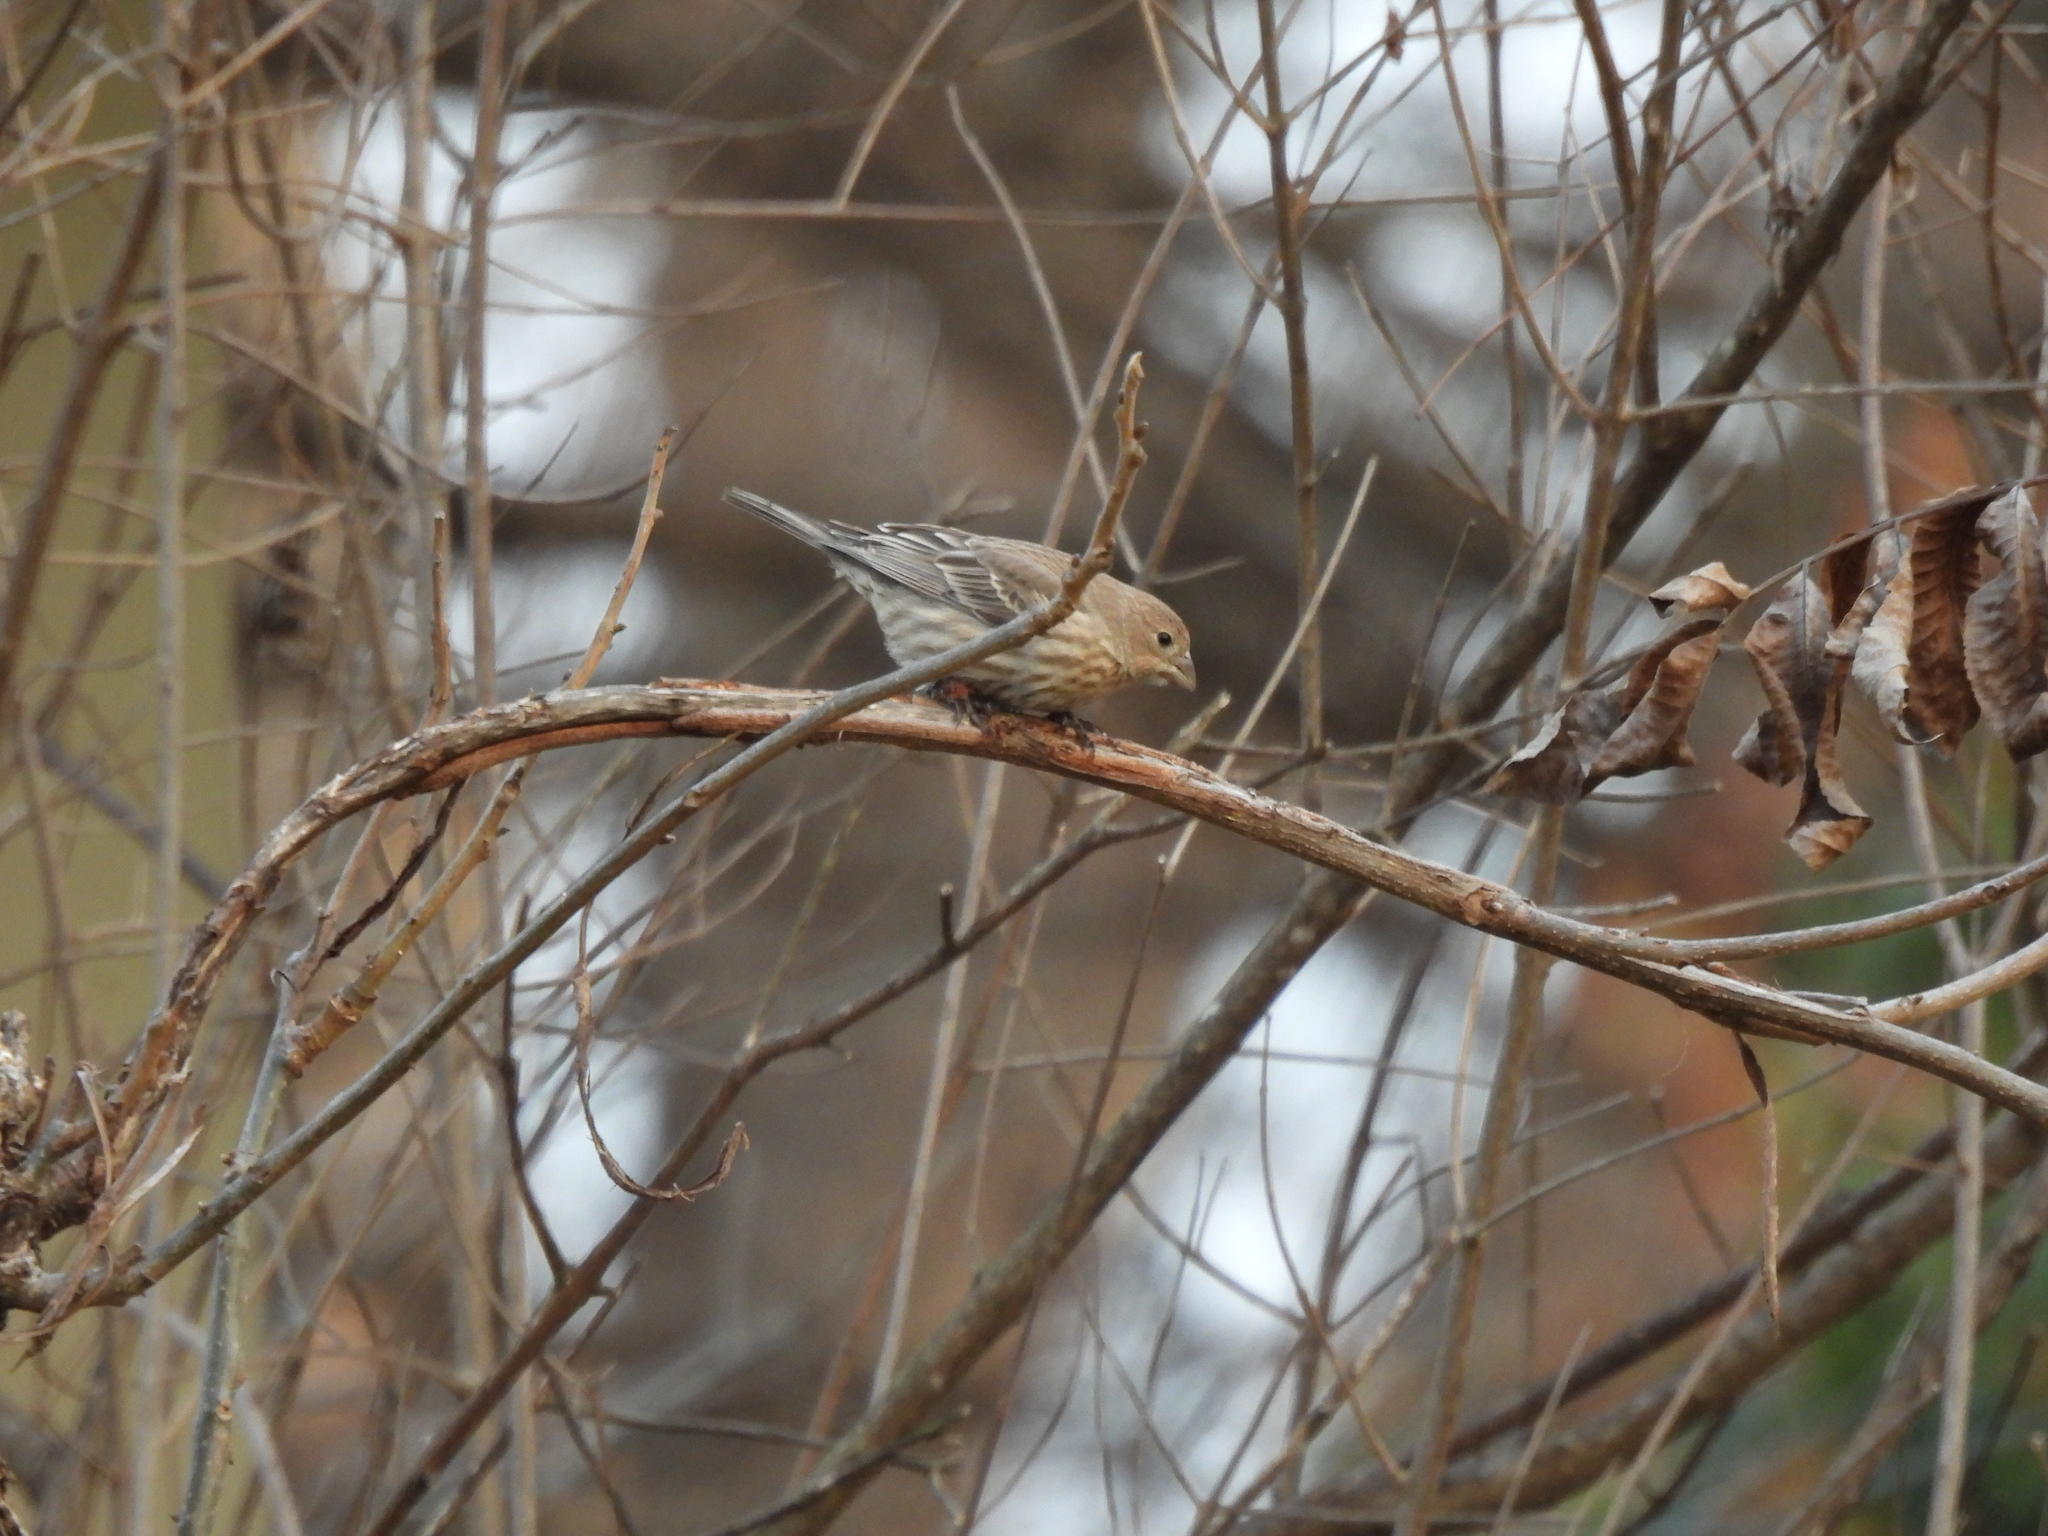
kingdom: Animalia
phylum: Chordata
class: Aves
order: Passeriformes
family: Fringillidae
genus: Haemorhous
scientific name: Haemorhous mexicanus
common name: House finch
